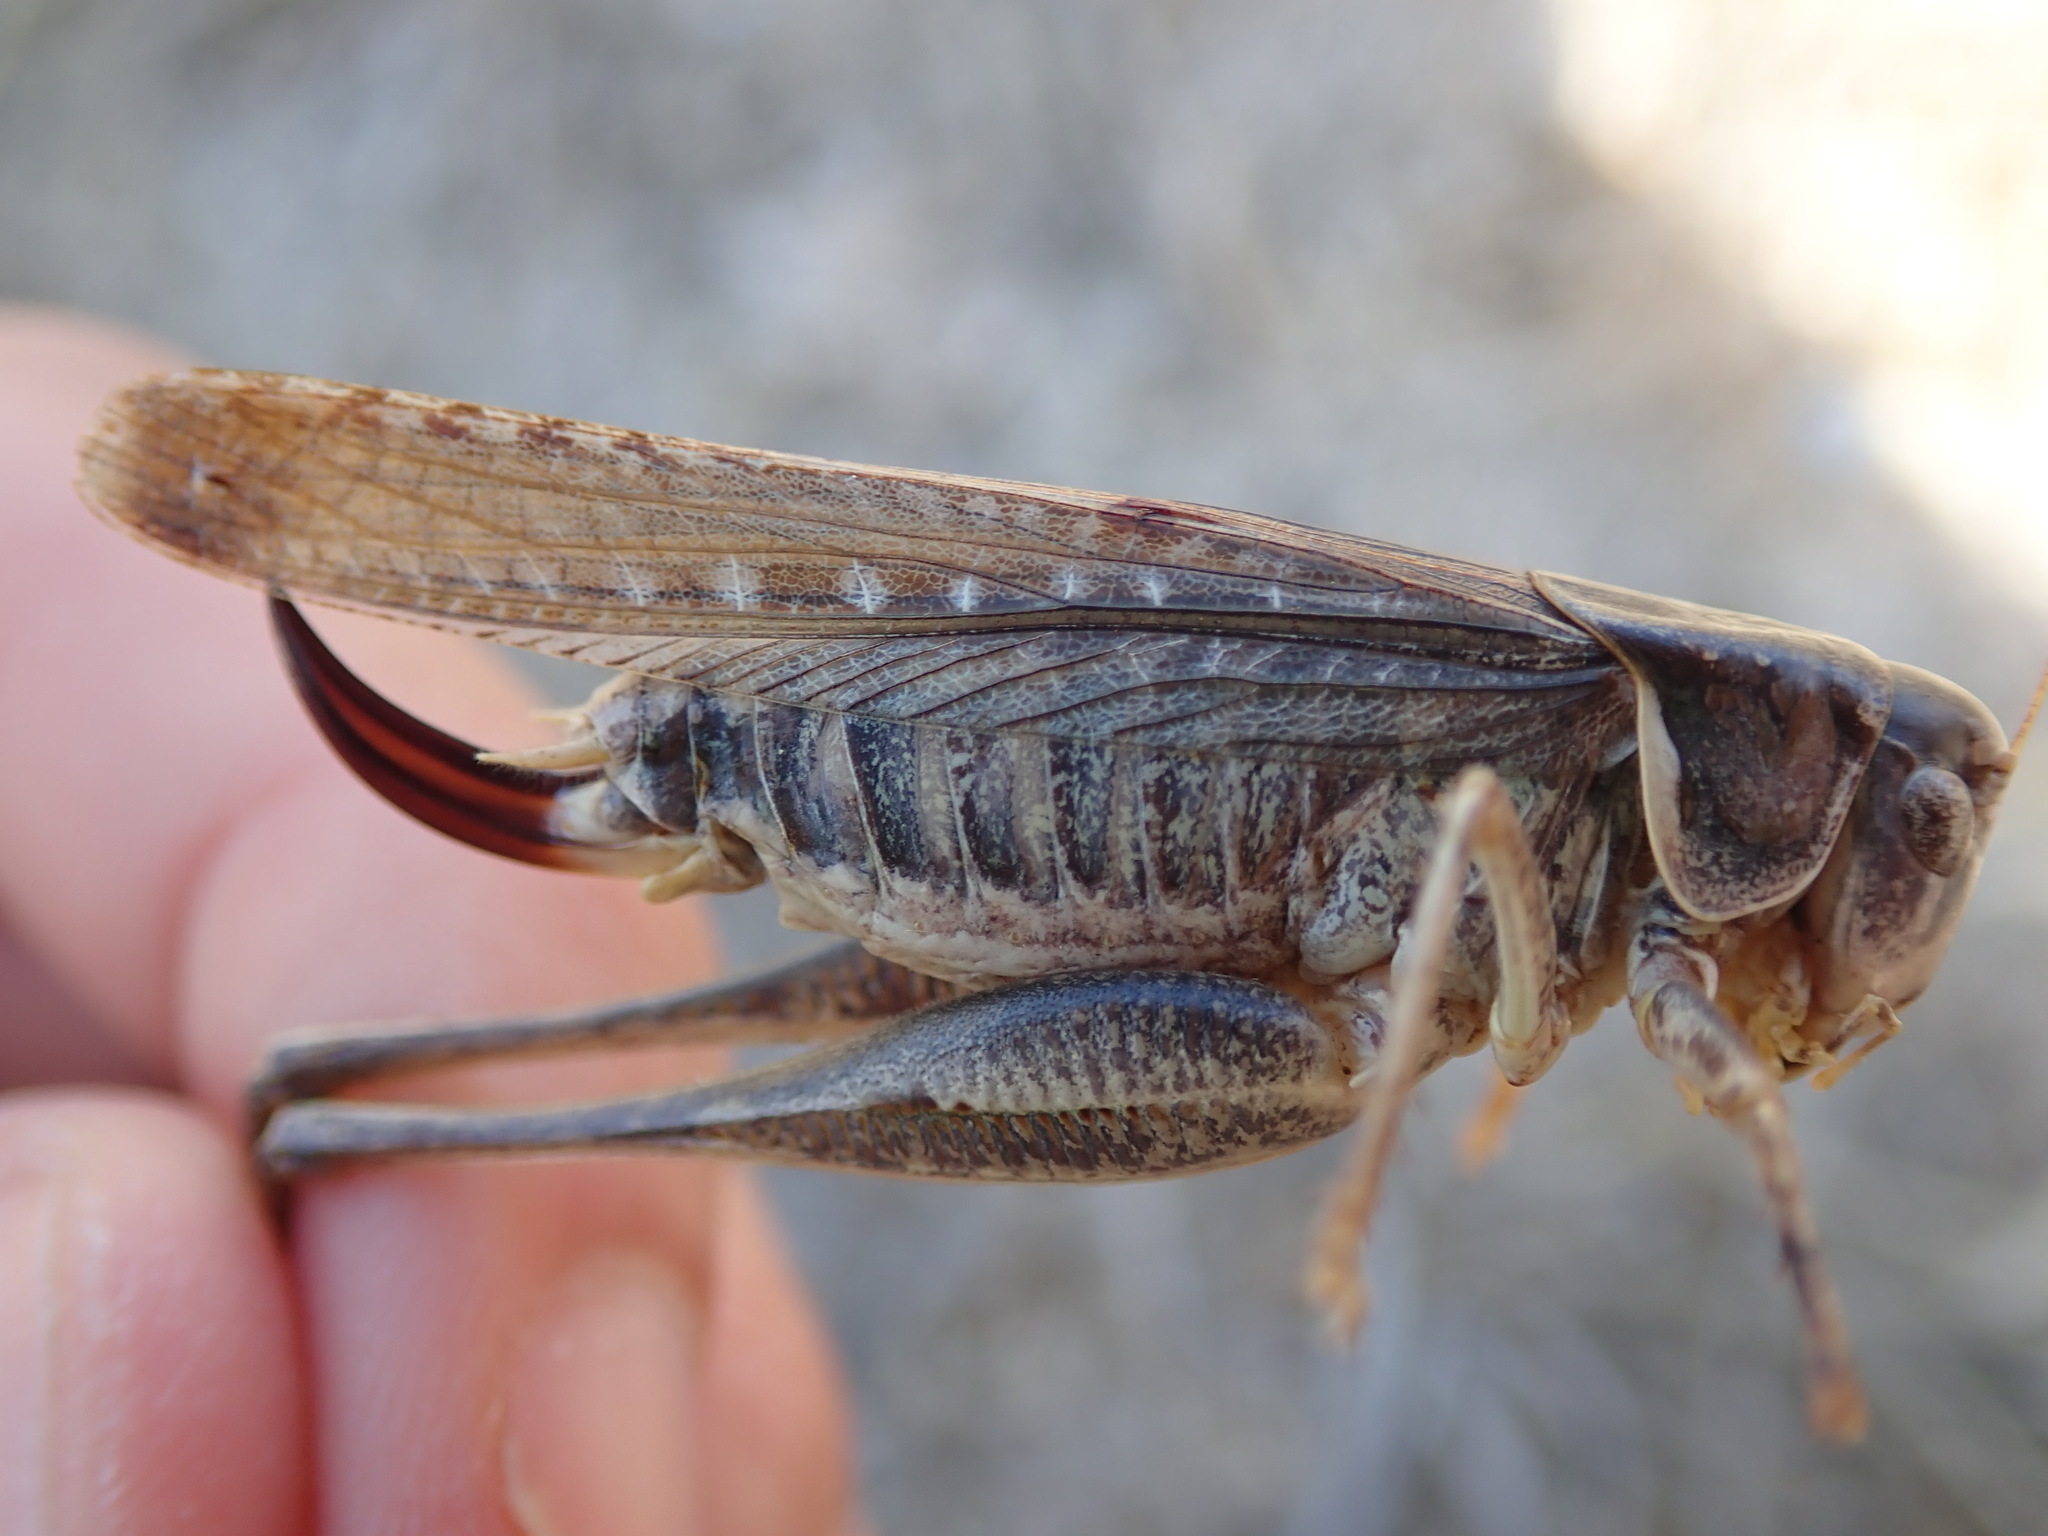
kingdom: Animalia
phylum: Arthropoda
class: Insecta
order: Orthoptera
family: Tettigoniidae
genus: Platycleis
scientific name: Platycleis falx
